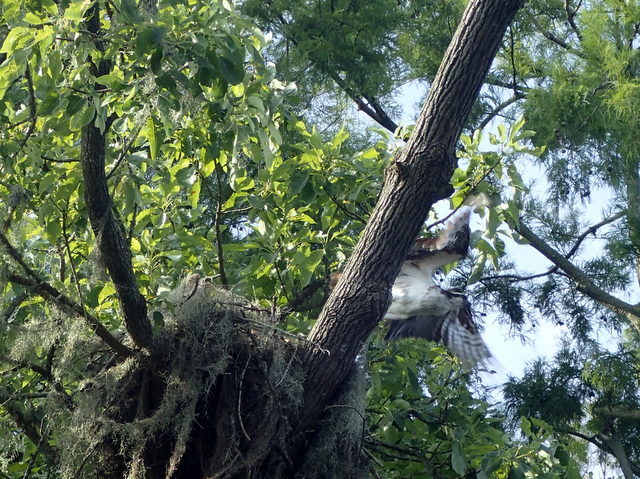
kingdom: Animalia
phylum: Chordata
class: Aves
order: Accipitriformes
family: Pandionidae
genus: Pandion
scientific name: Pandion haliaetus
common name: Osprey
